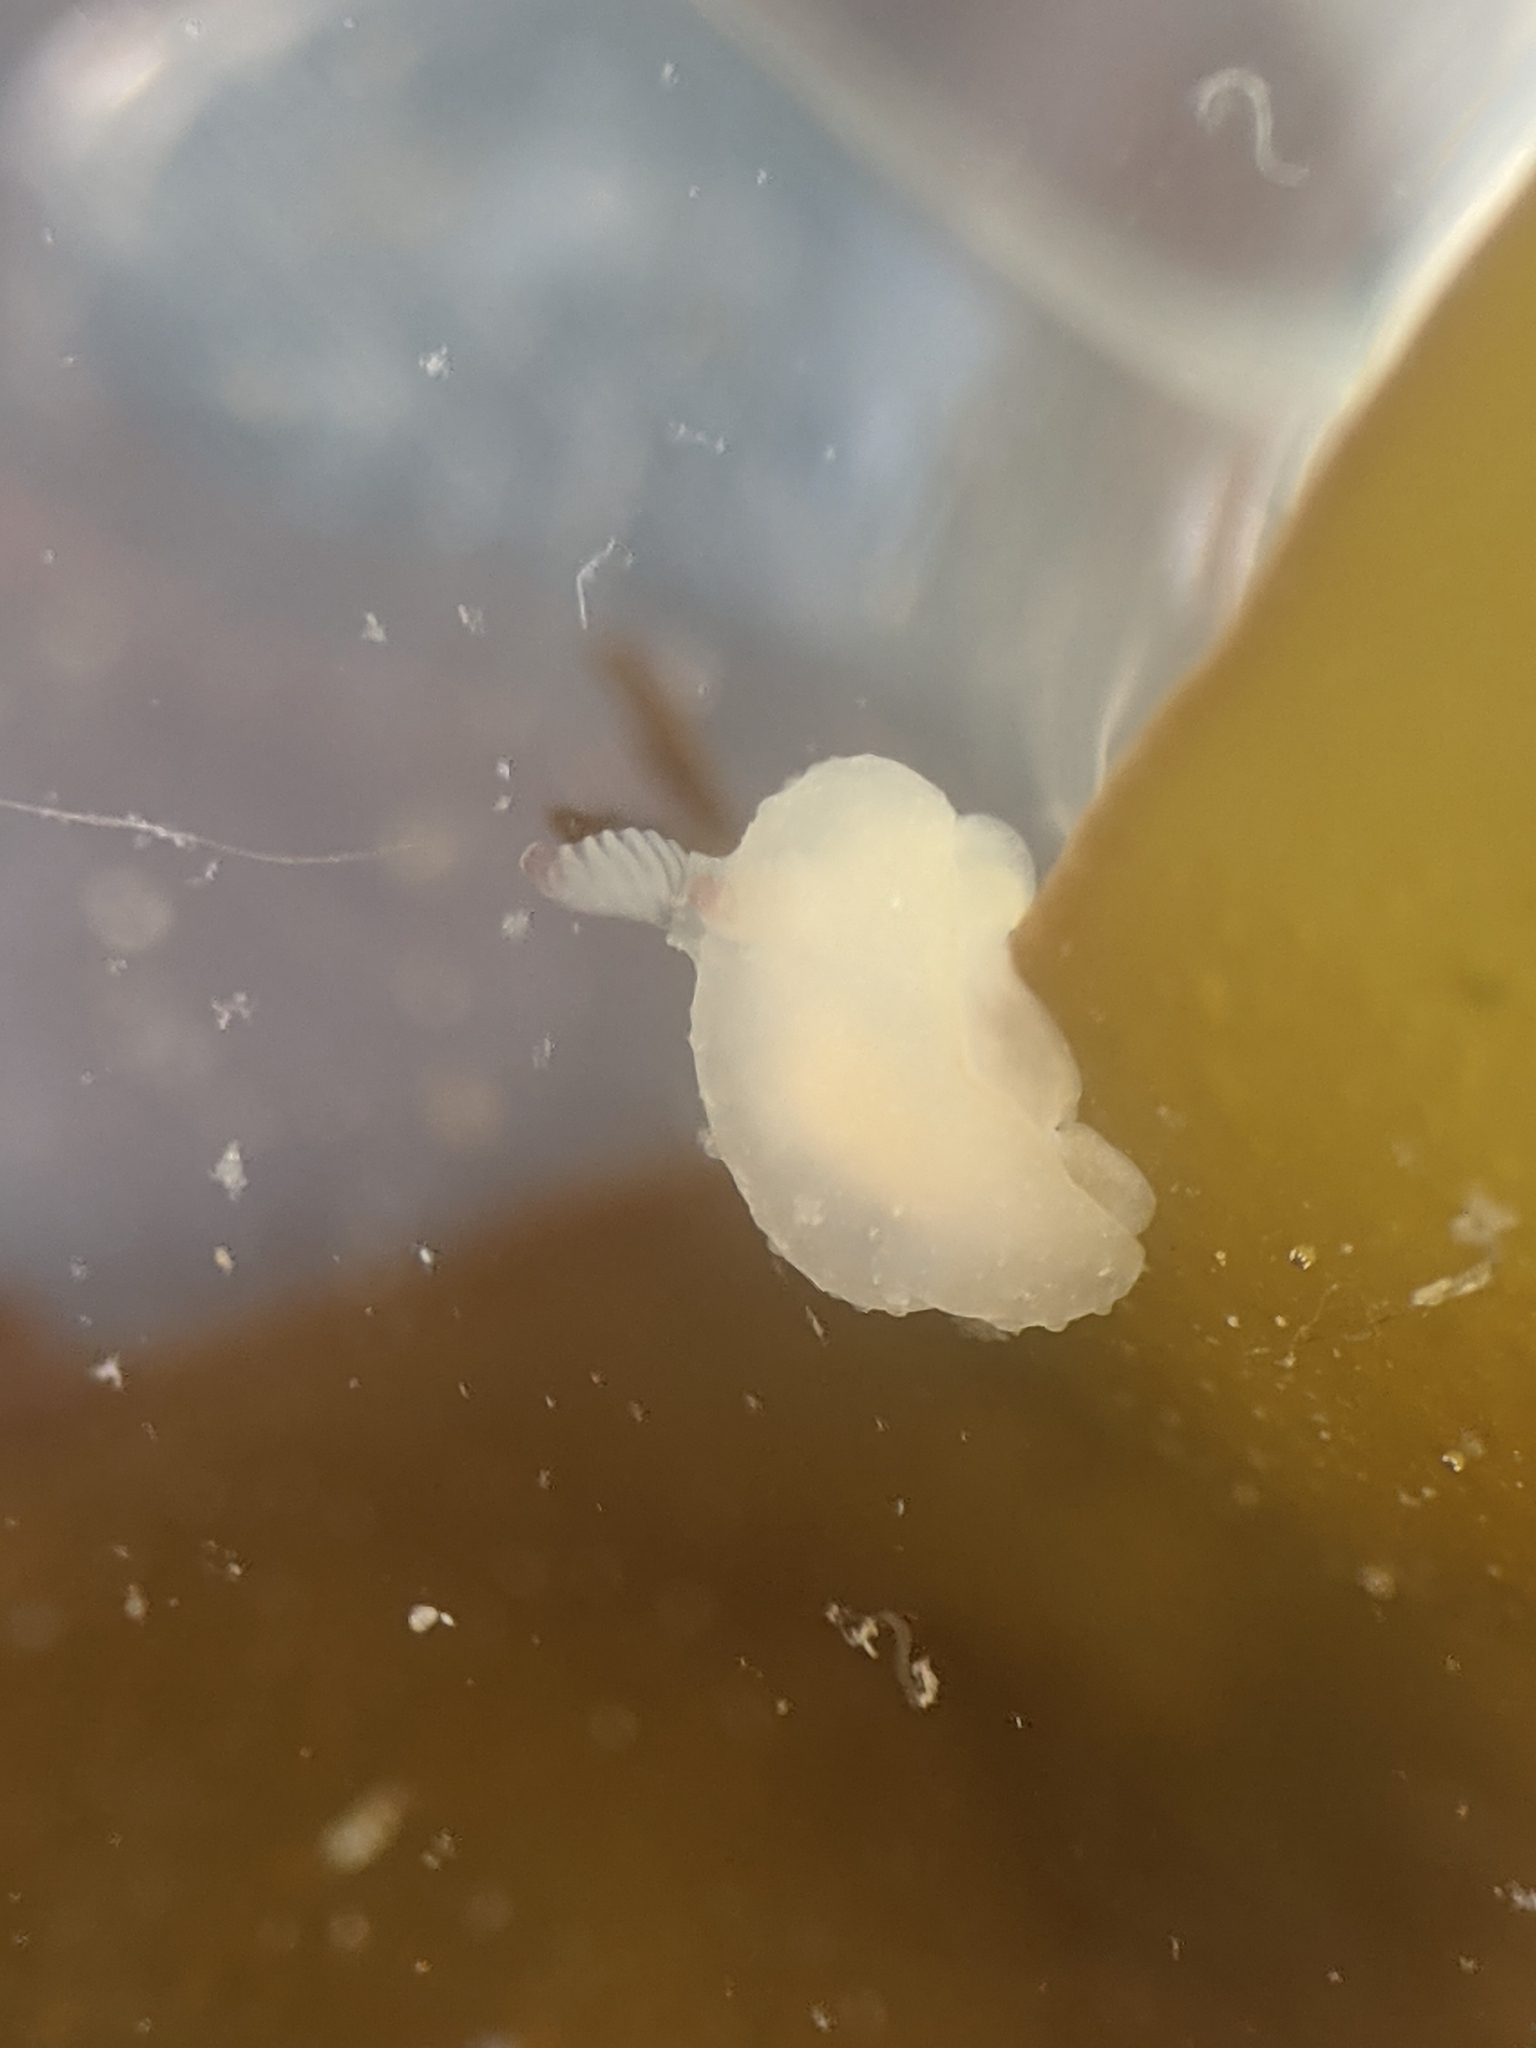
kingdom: Animalia
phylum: Mollusca
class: Gastropoda
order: Nudibranchia
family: Actinocyclidae
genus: Hallaxa
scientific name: Hallaxa chani
